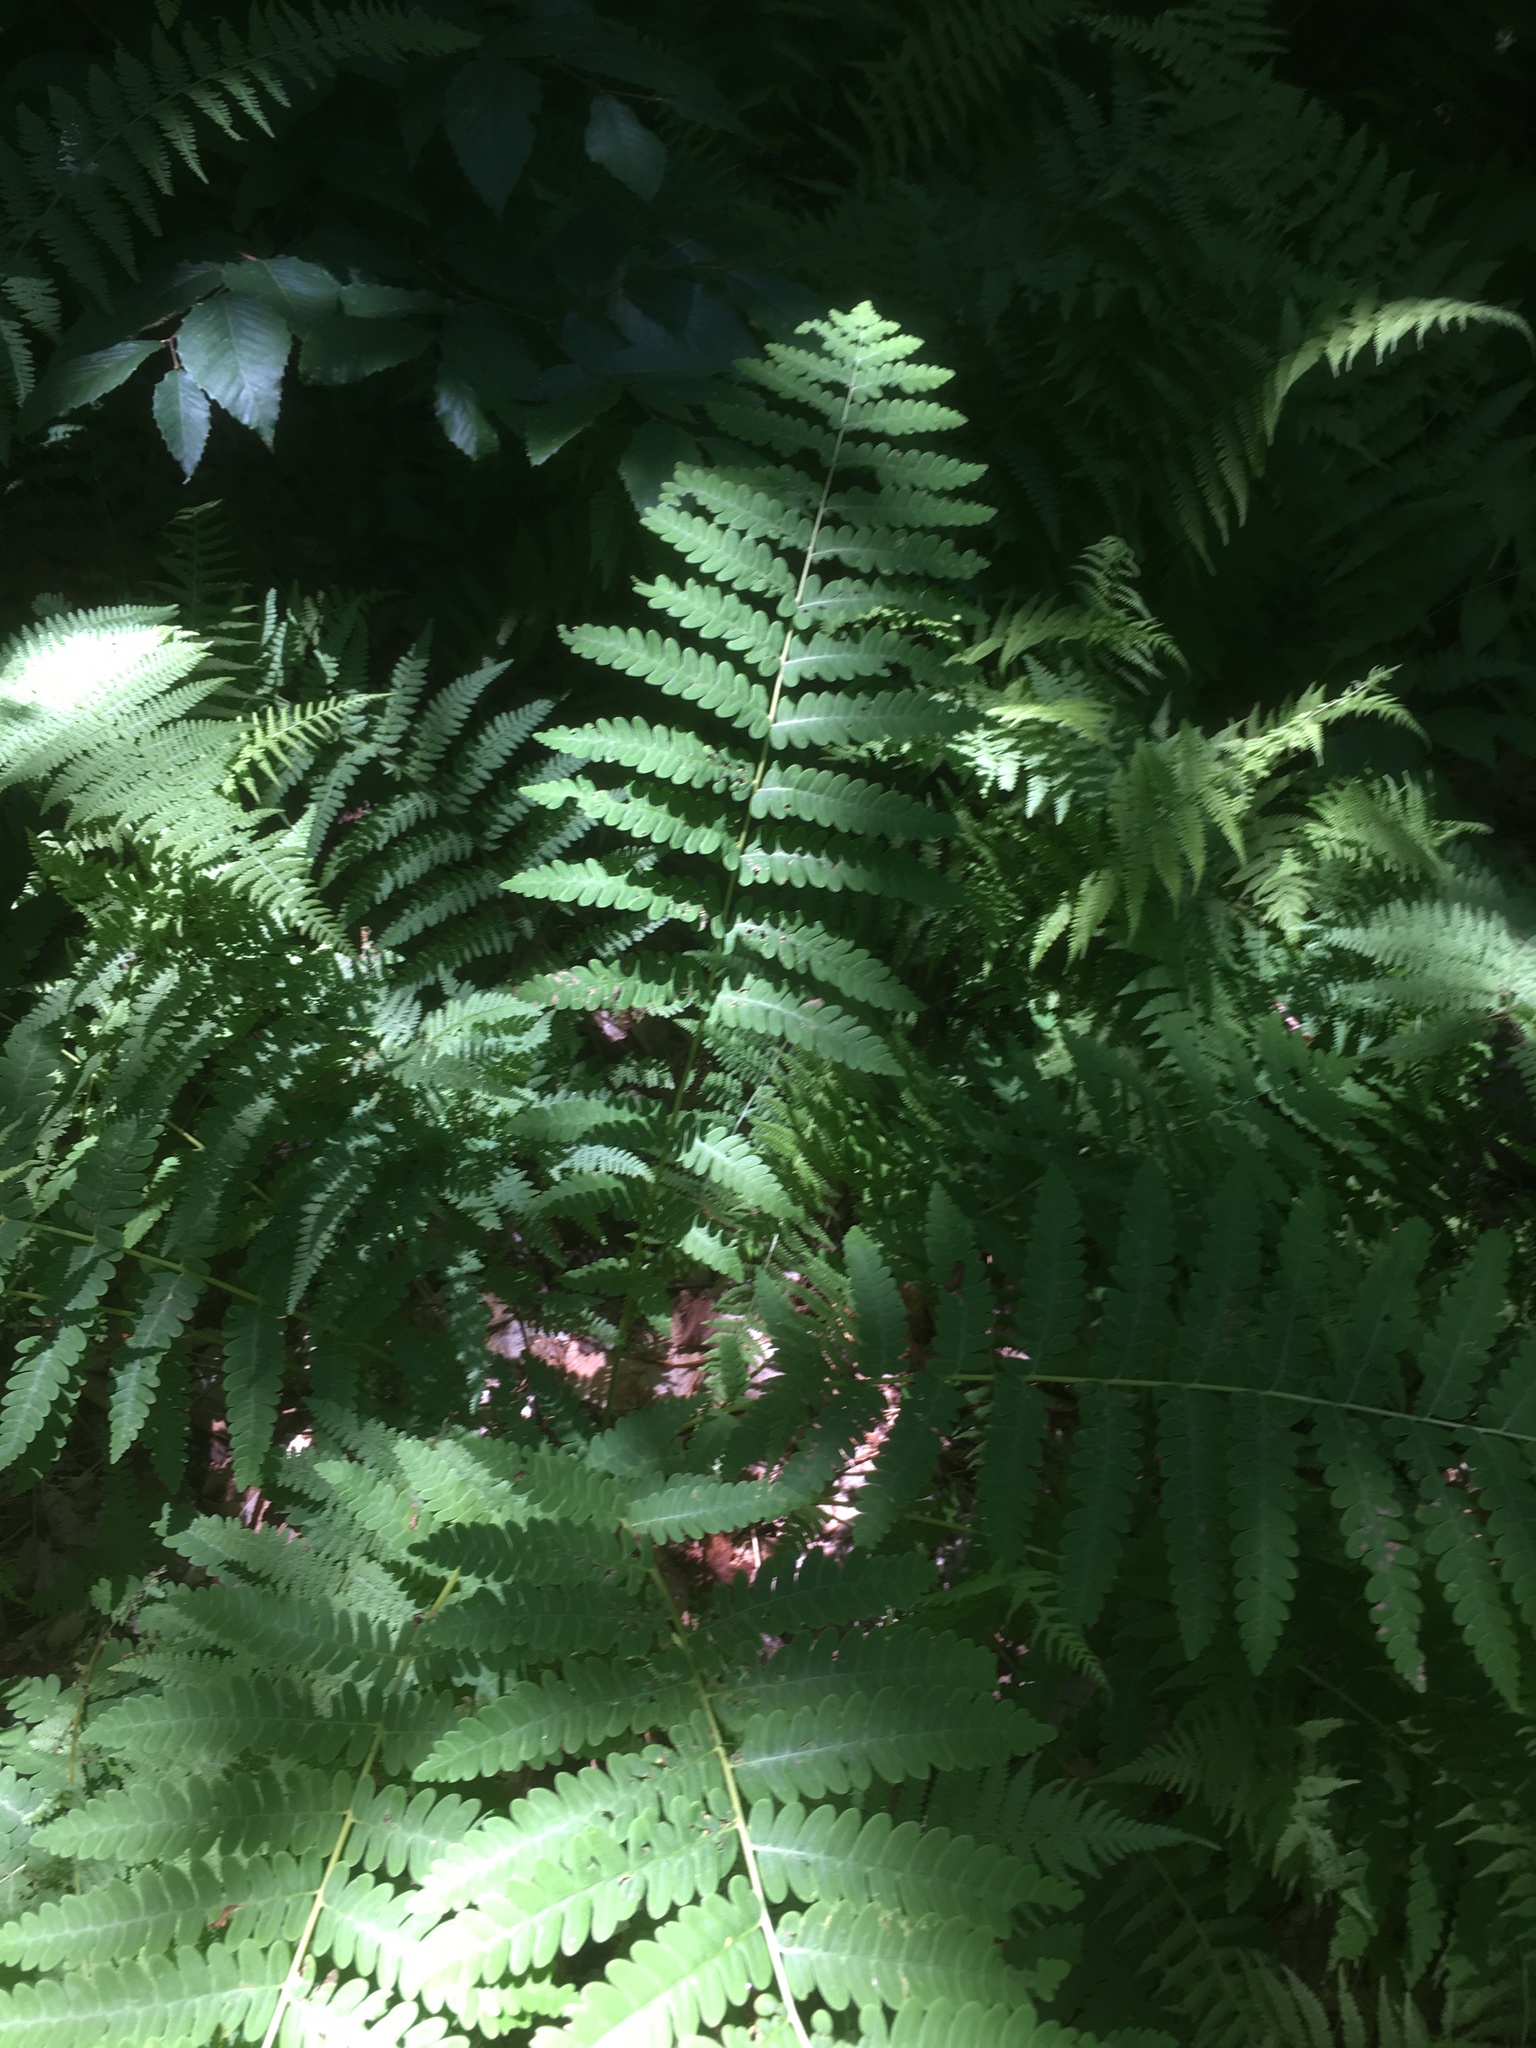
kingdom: Plantae
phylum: Tracheophyta
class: Polypodiopsida
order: Osmundales
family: Osmundaceae
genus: Claytosmunda
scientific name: Claytosmunda claytoniana
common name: Clayton's fern
